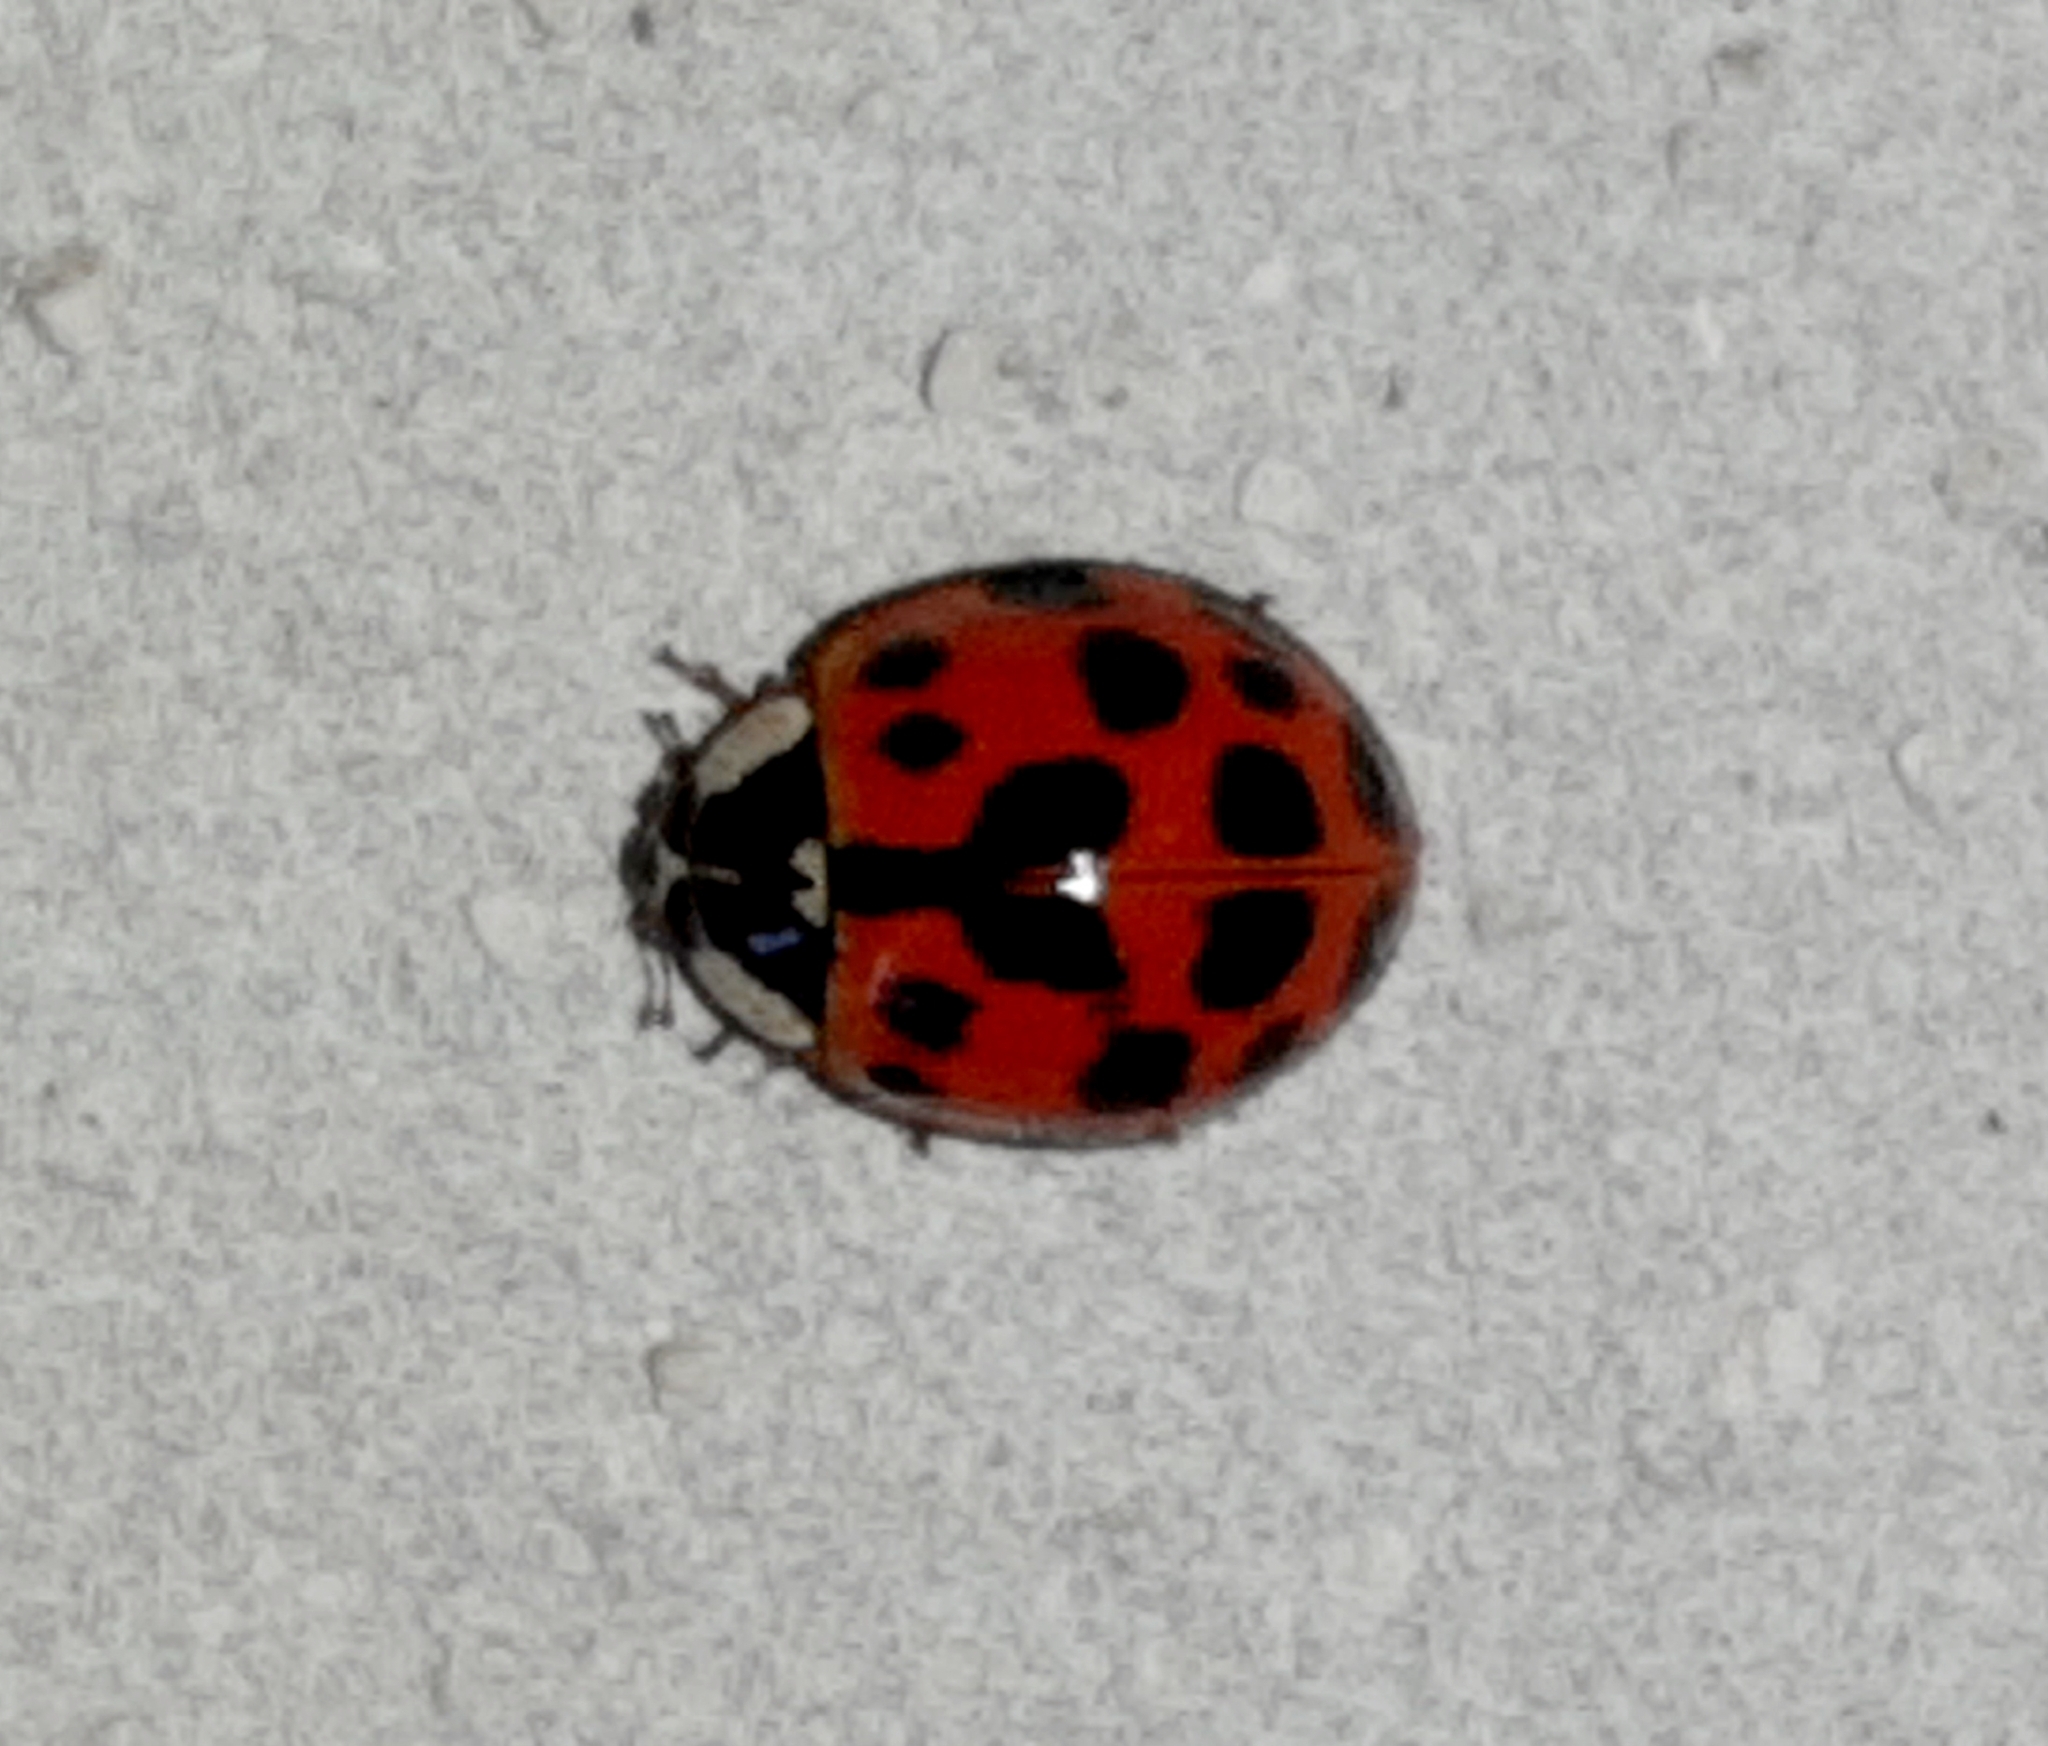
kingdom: Animalia
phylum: Arthropoda
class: Insecta
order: Coleoptera
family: Coccinellidae
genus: Harmonia
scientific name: Harmonia axyridis
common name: Harlequin ladybird
